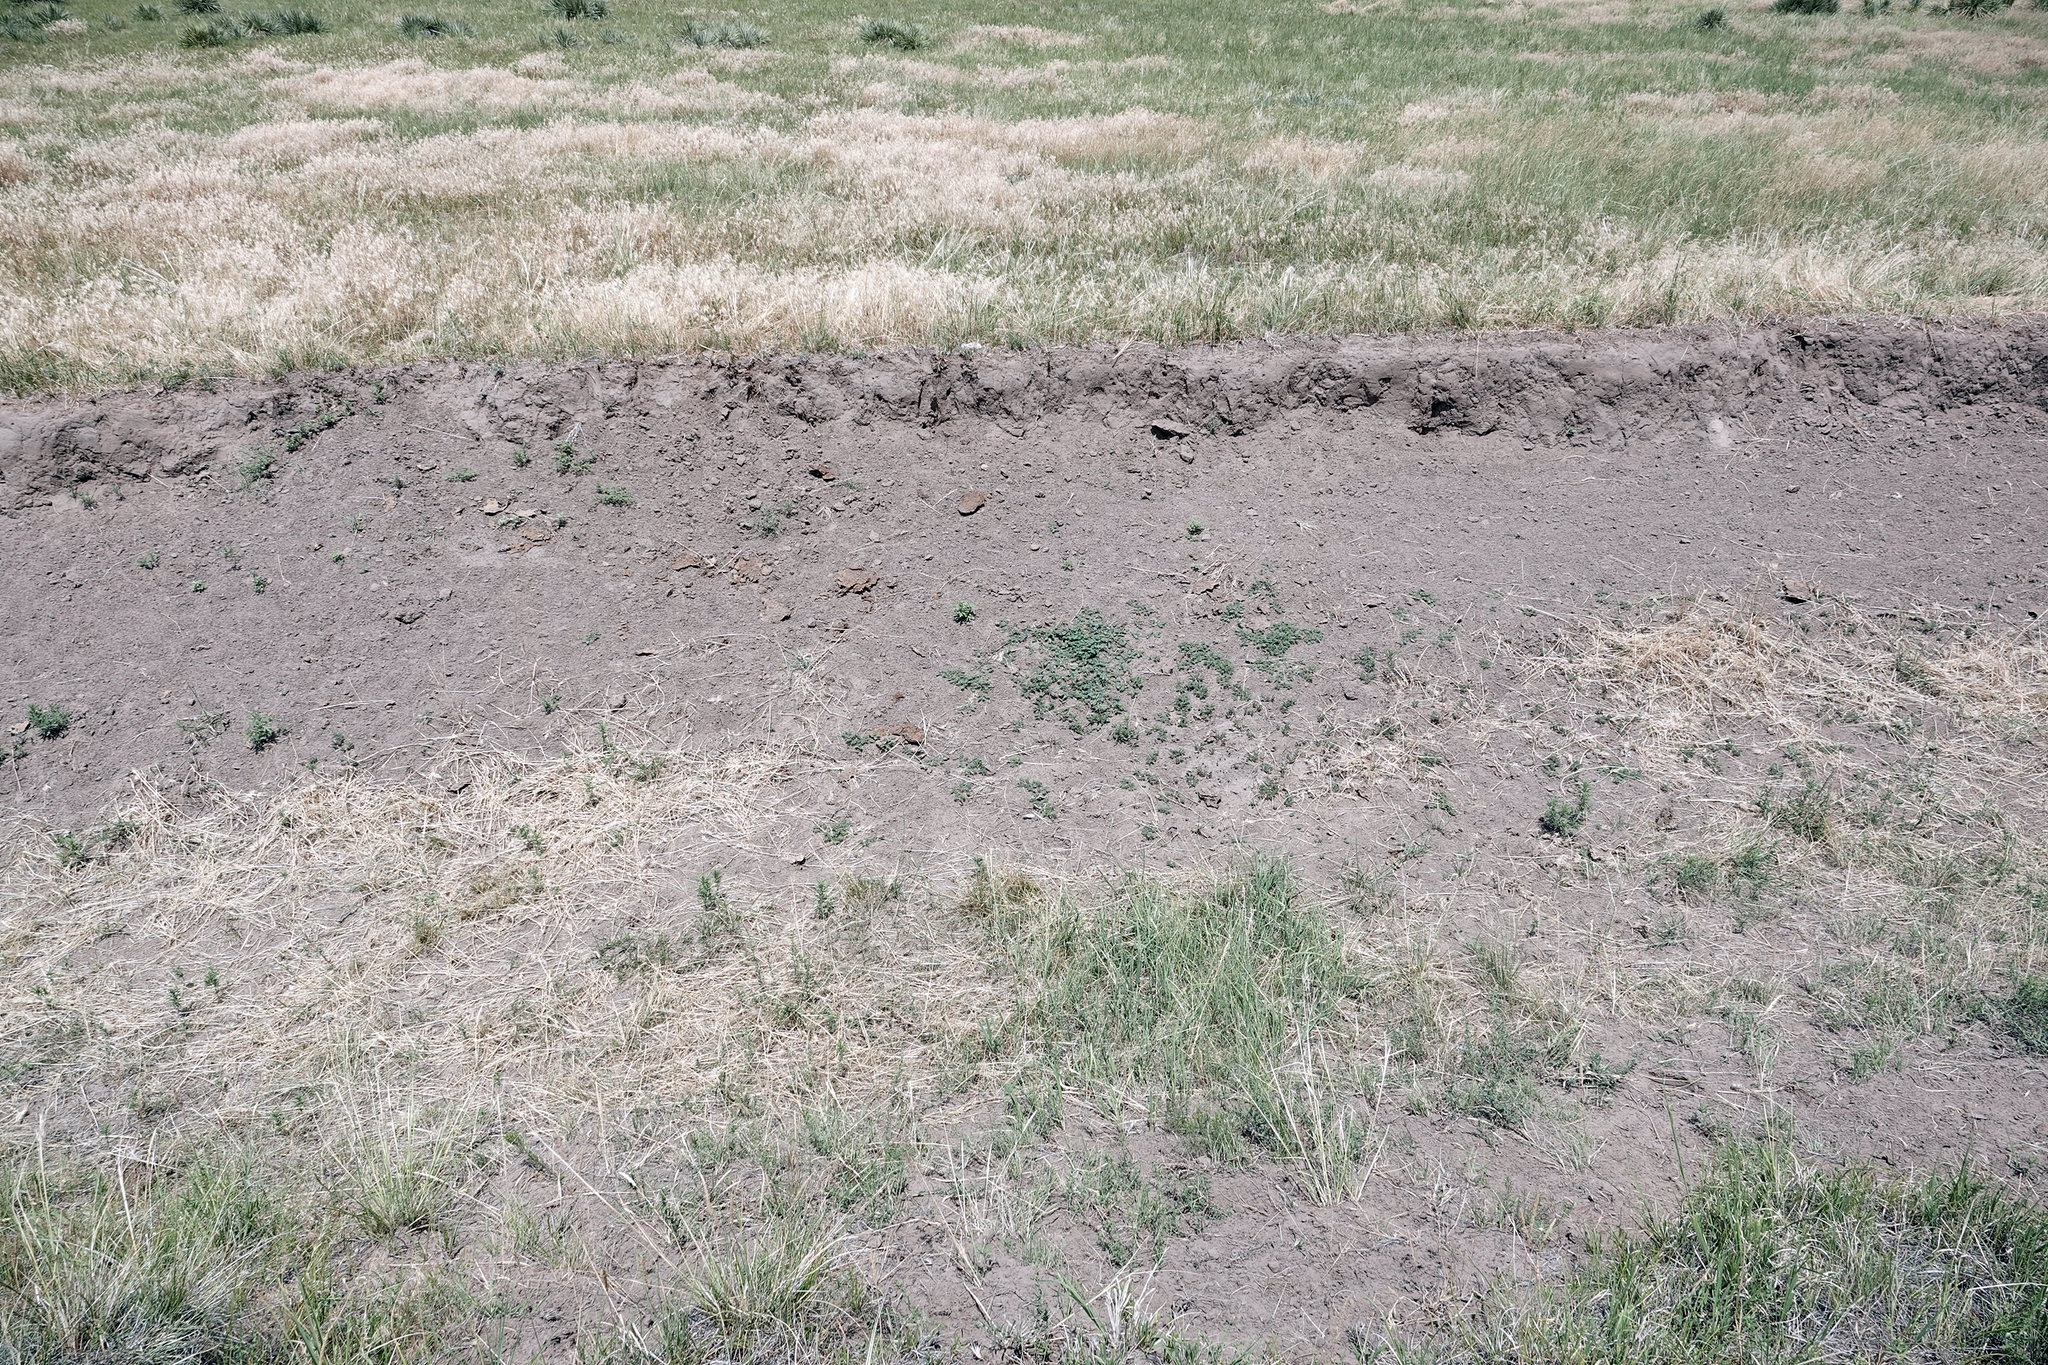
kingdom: Plantae
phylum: Tracheophyta
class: Magnoliopsida
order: Zygophyllales
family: Zygophyllaceae
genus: Tribulus
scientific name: Tribulus terrestris
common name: Puncturevine
